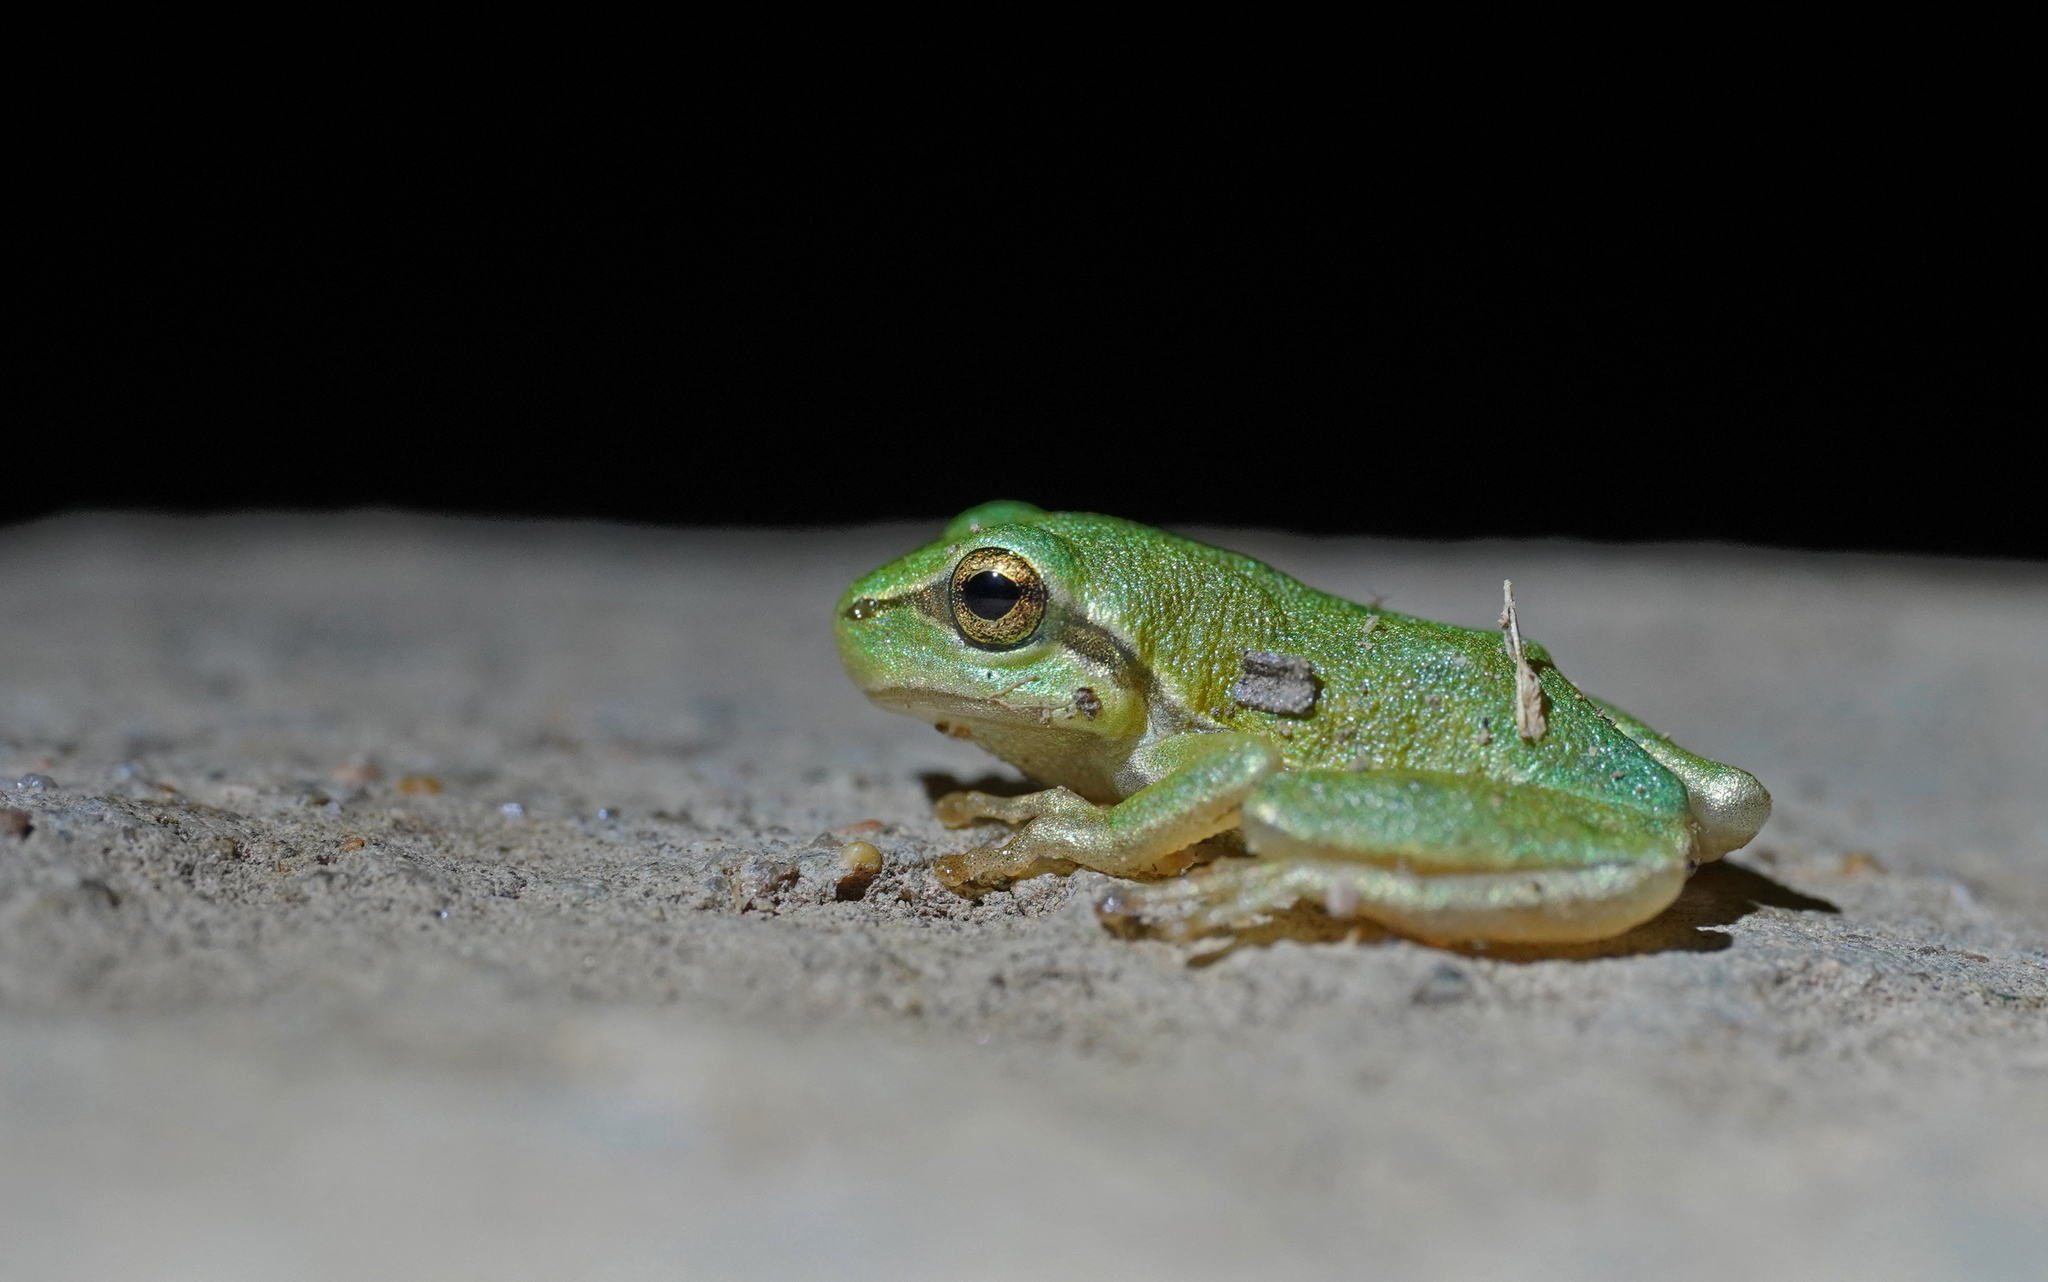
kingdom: Animalia
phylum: Chordata
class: Amphibia
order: Anura
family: Hylidae
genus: Hyla
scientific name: Hyla sarda
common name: Sardinian tree frog
